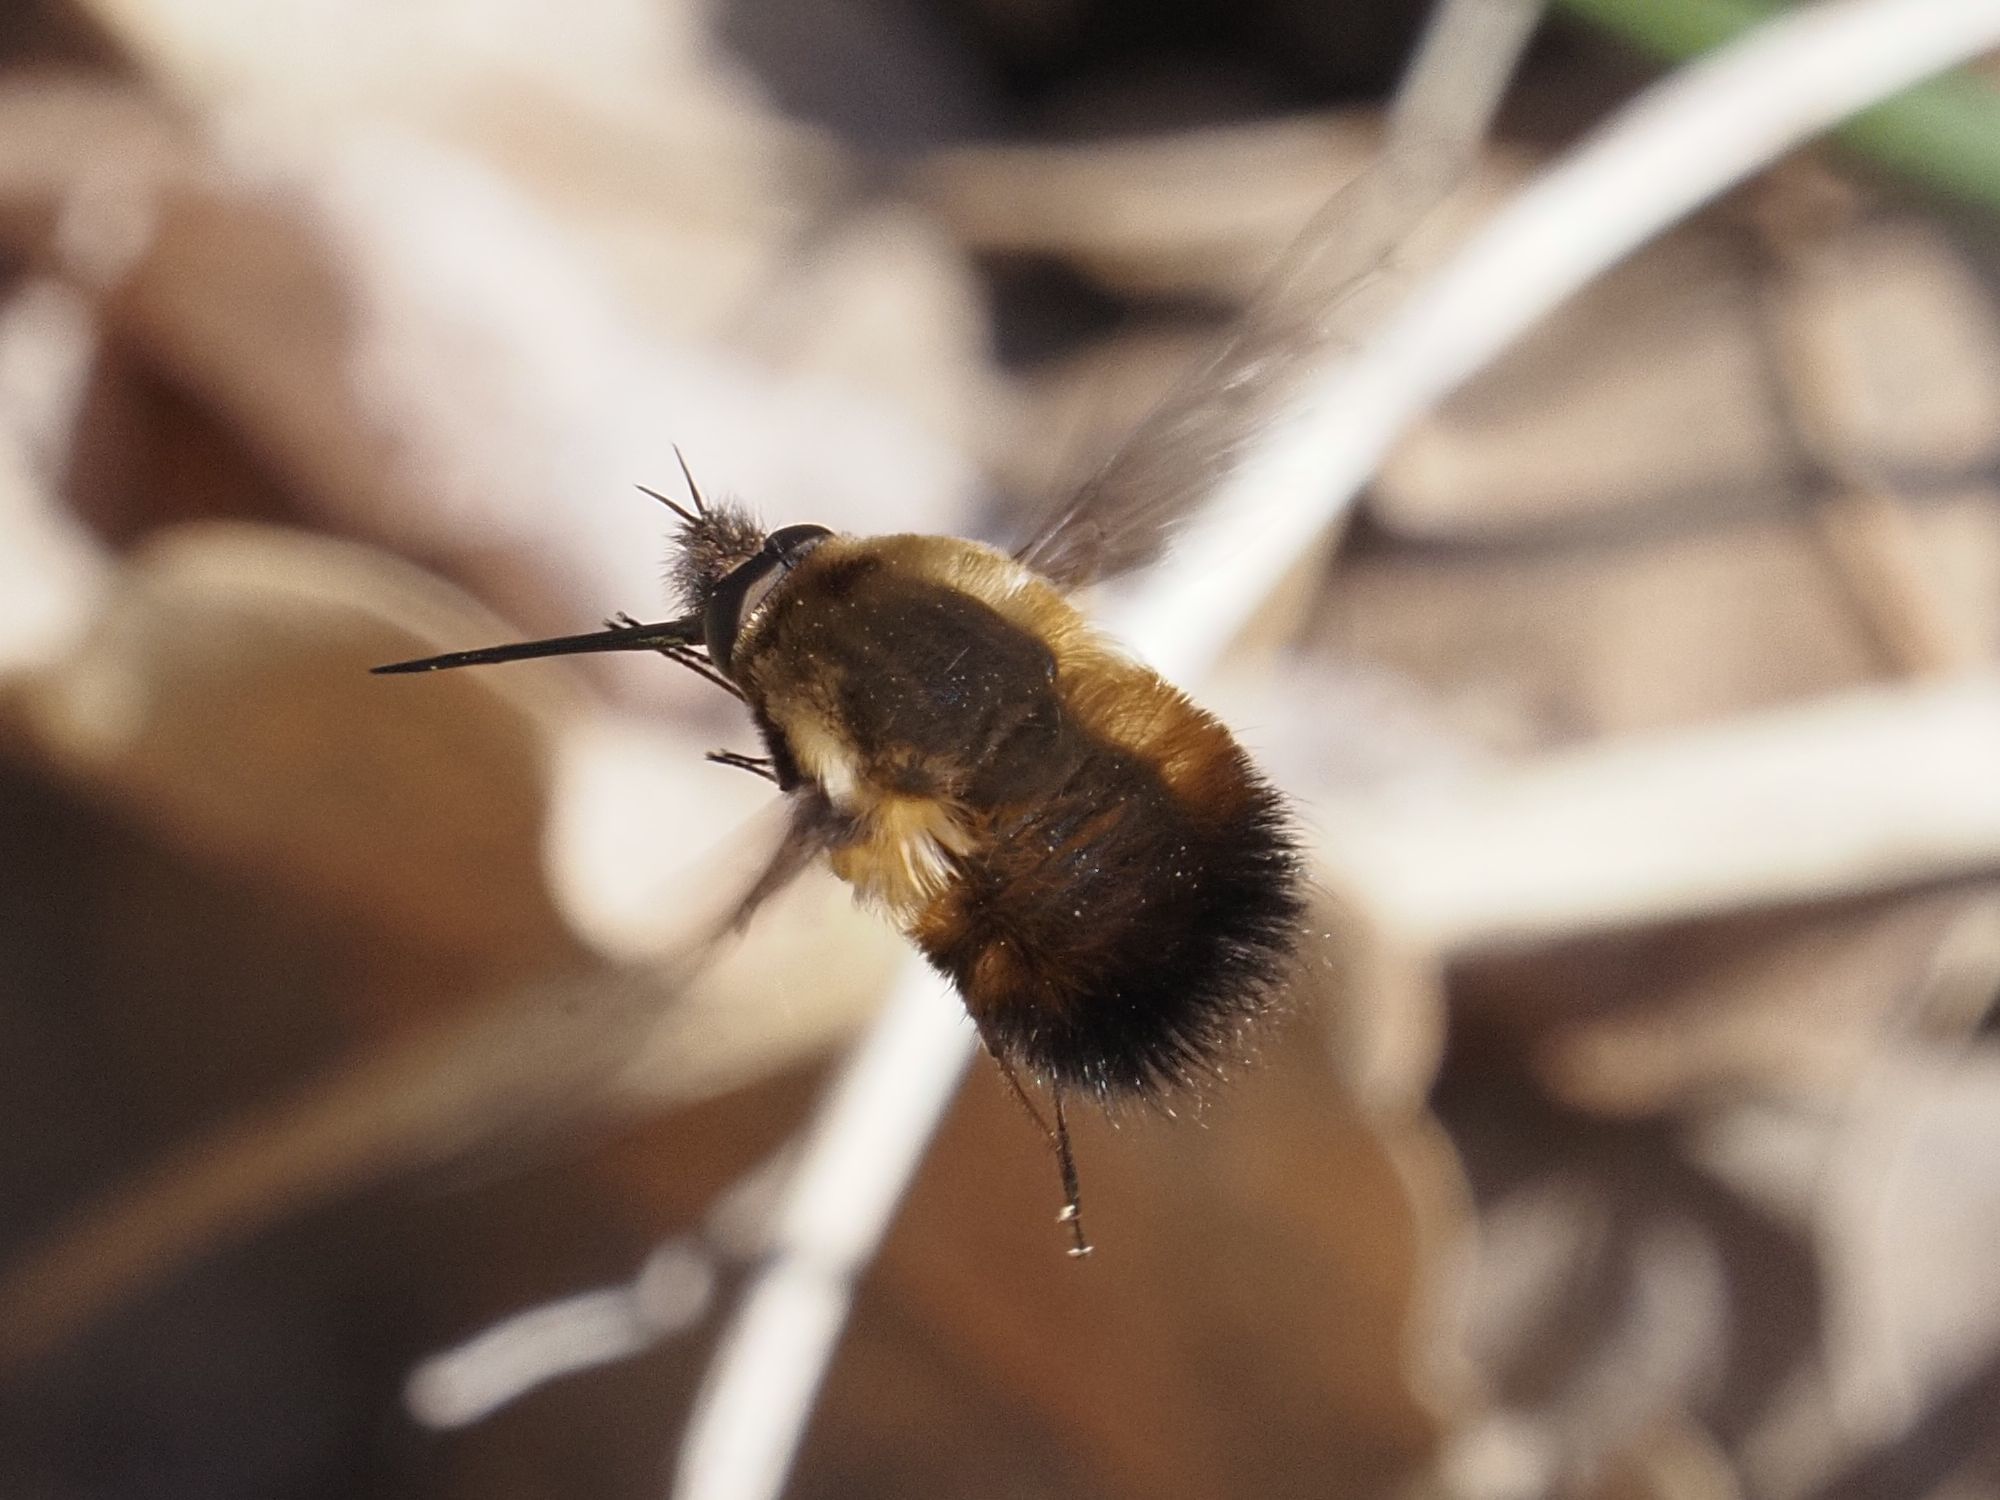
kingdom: Animalia
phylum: Arthropoda
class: Insecta
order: Diptera
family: Bombyliidae
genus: Bombylius
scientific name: Bombylius discolor
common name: Dotted bee-fly
